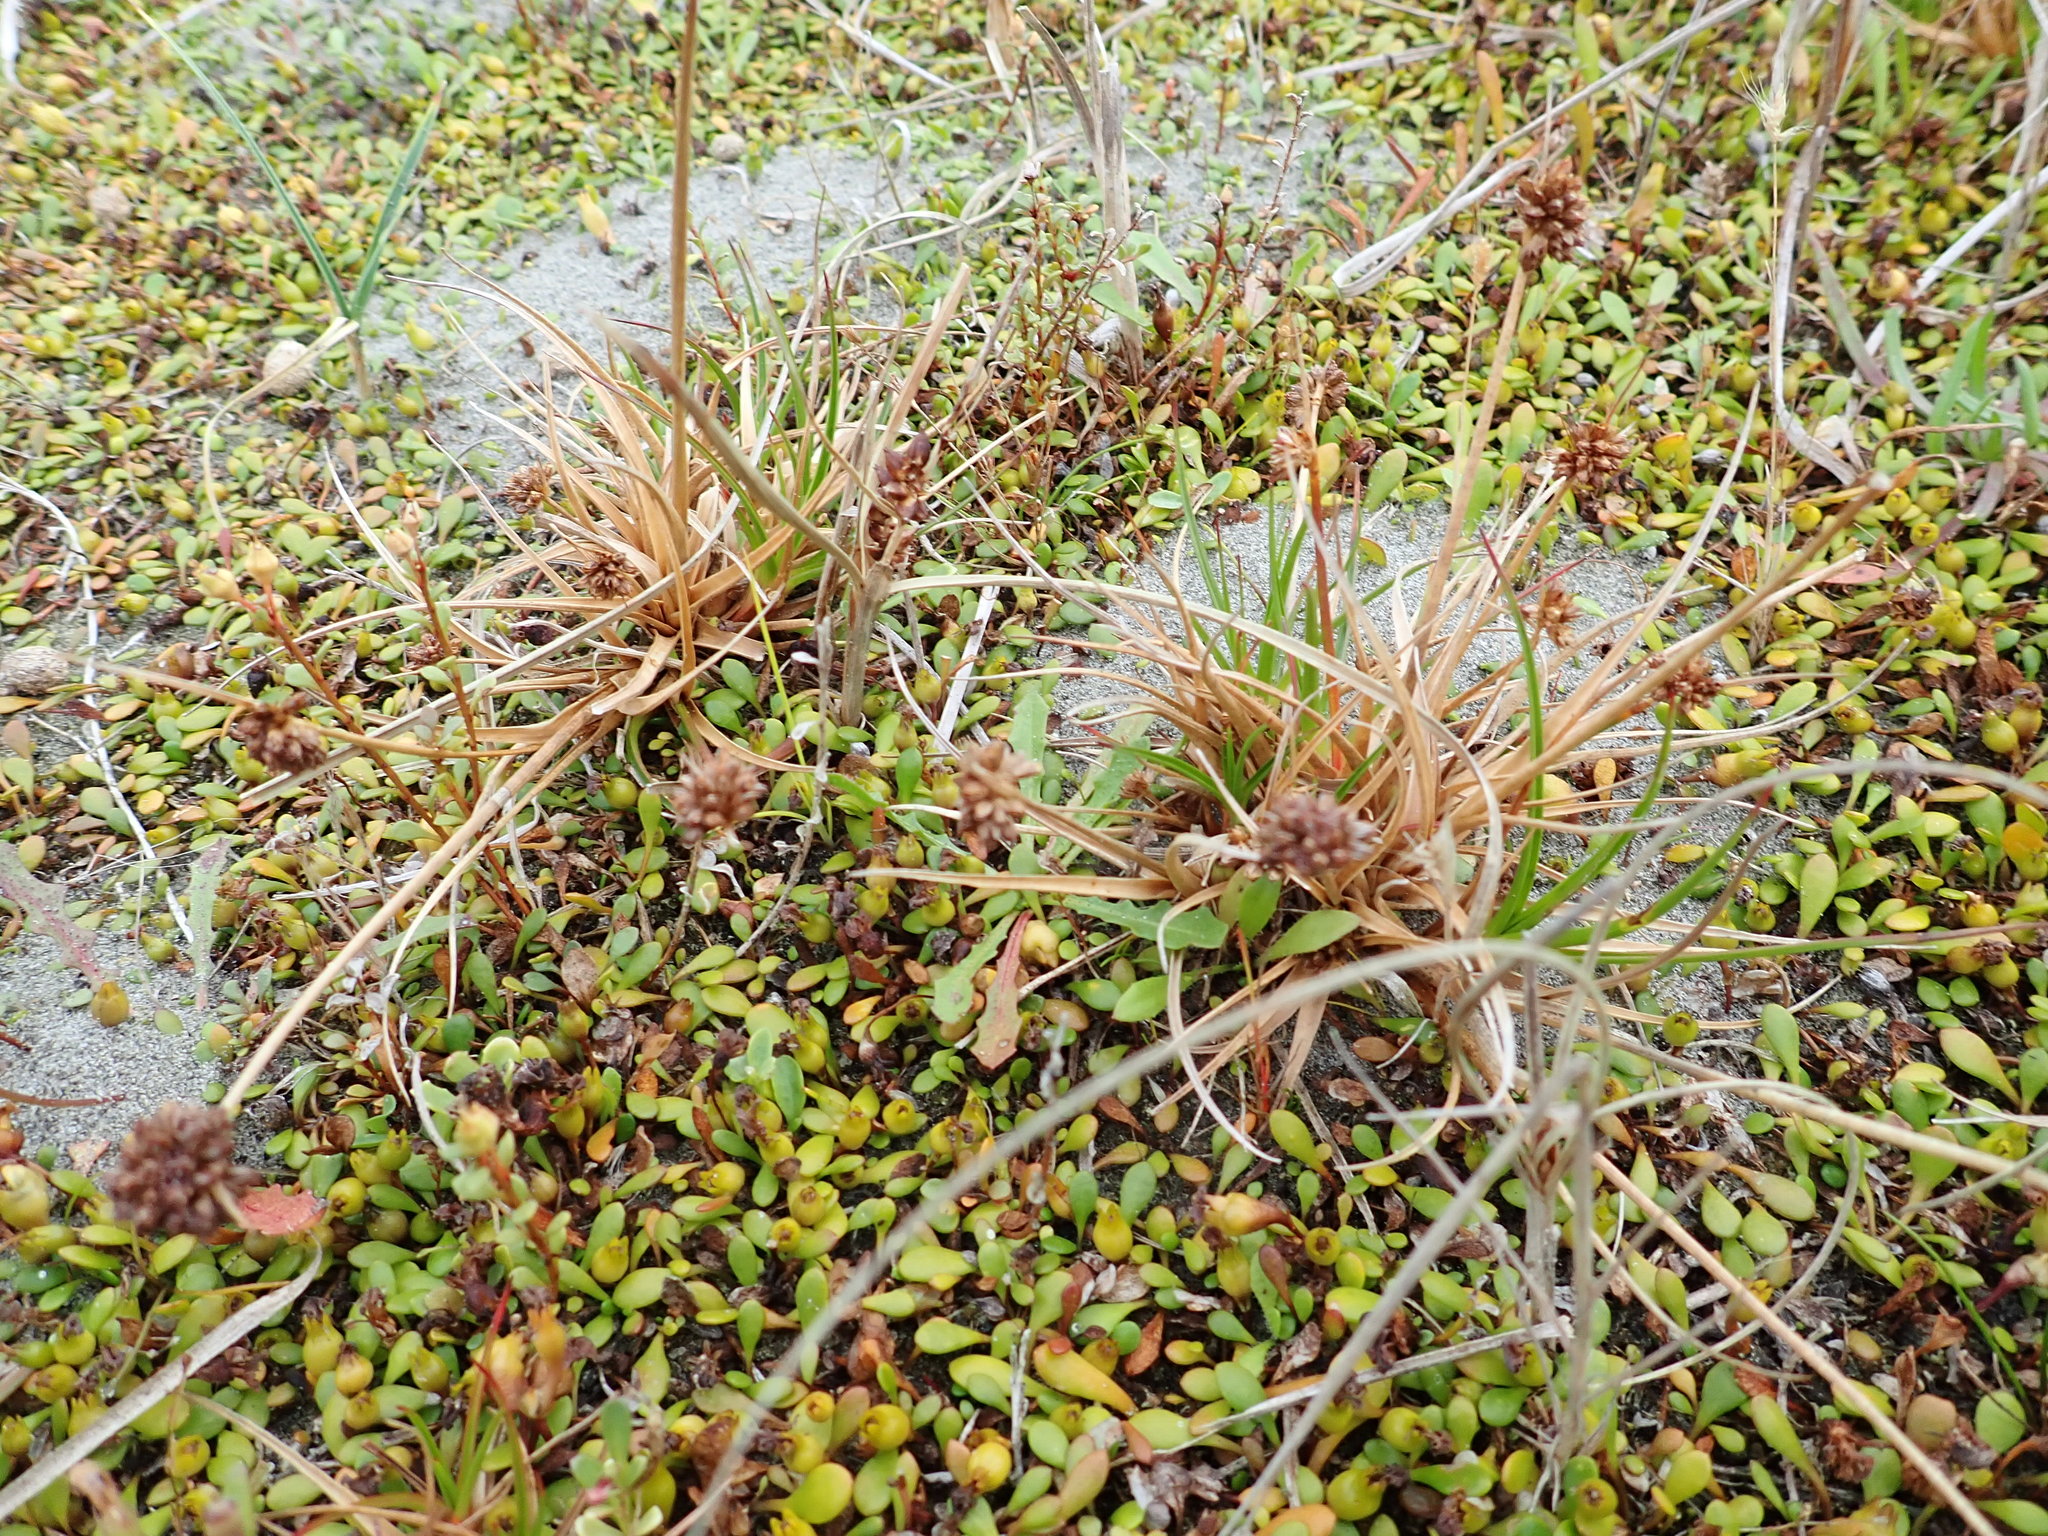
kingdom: Plantae
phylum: Tracheophyta
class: Liliopsida
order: Poales
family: Juncaceae
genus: Juncus
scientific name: Juncus caespiticius
